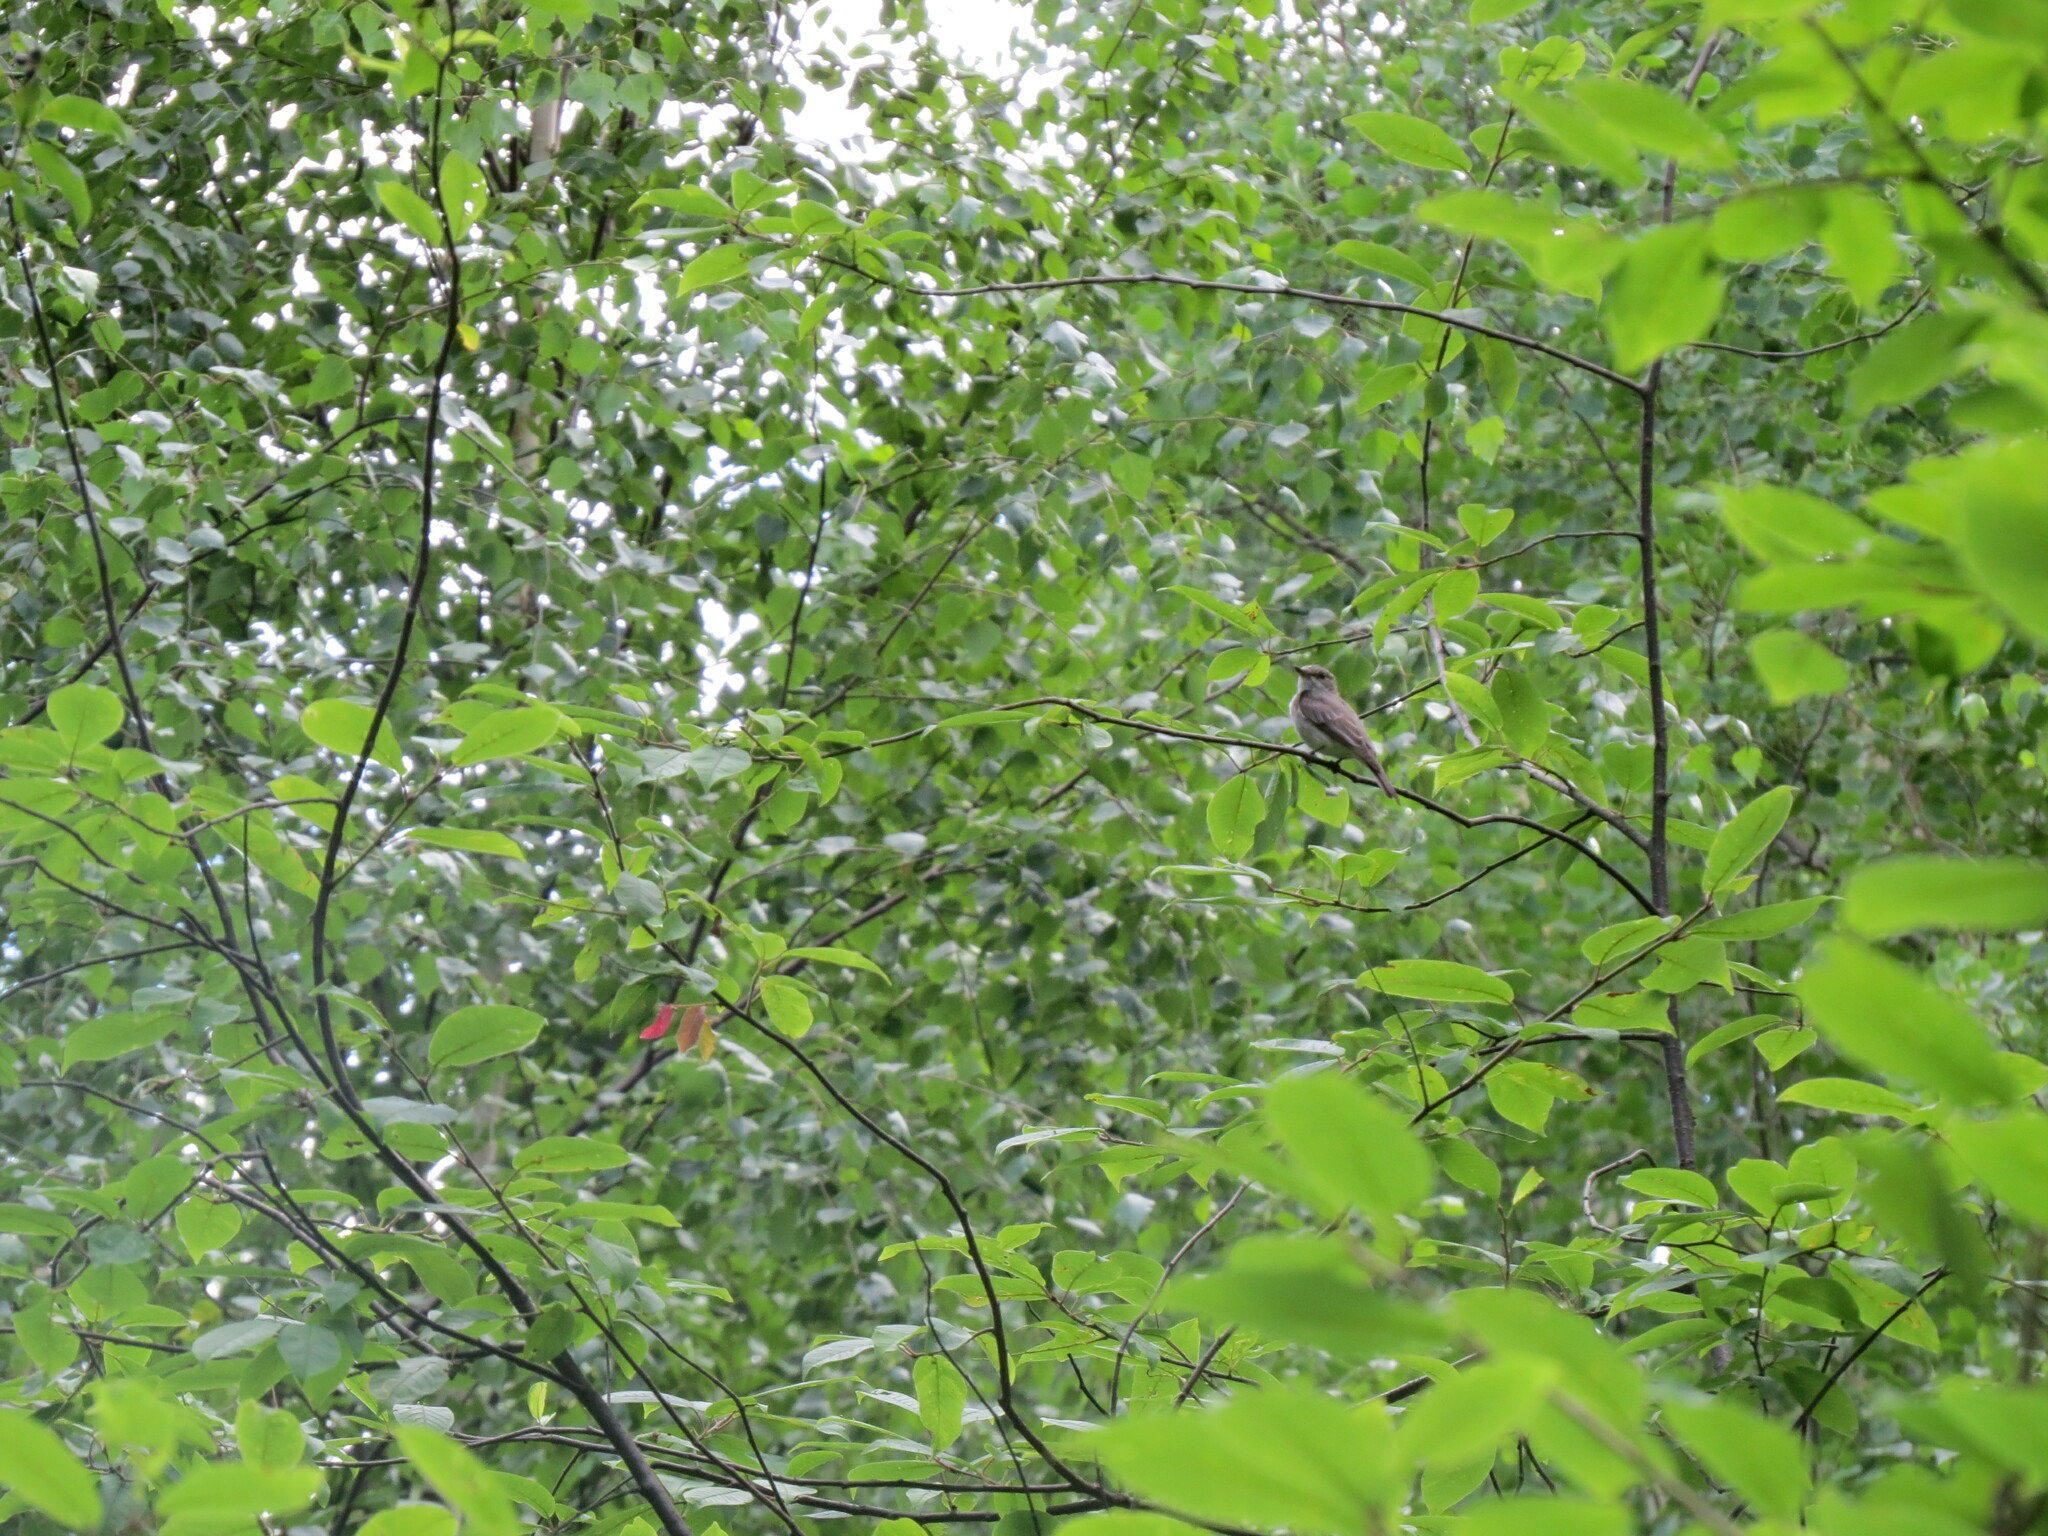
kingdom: Animalia
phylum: Chordata
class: Aves
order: Passeriformes
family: Muscicapidae
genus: Muscicapa
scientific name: Muscicapa striata
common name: Spotted flycatcher
